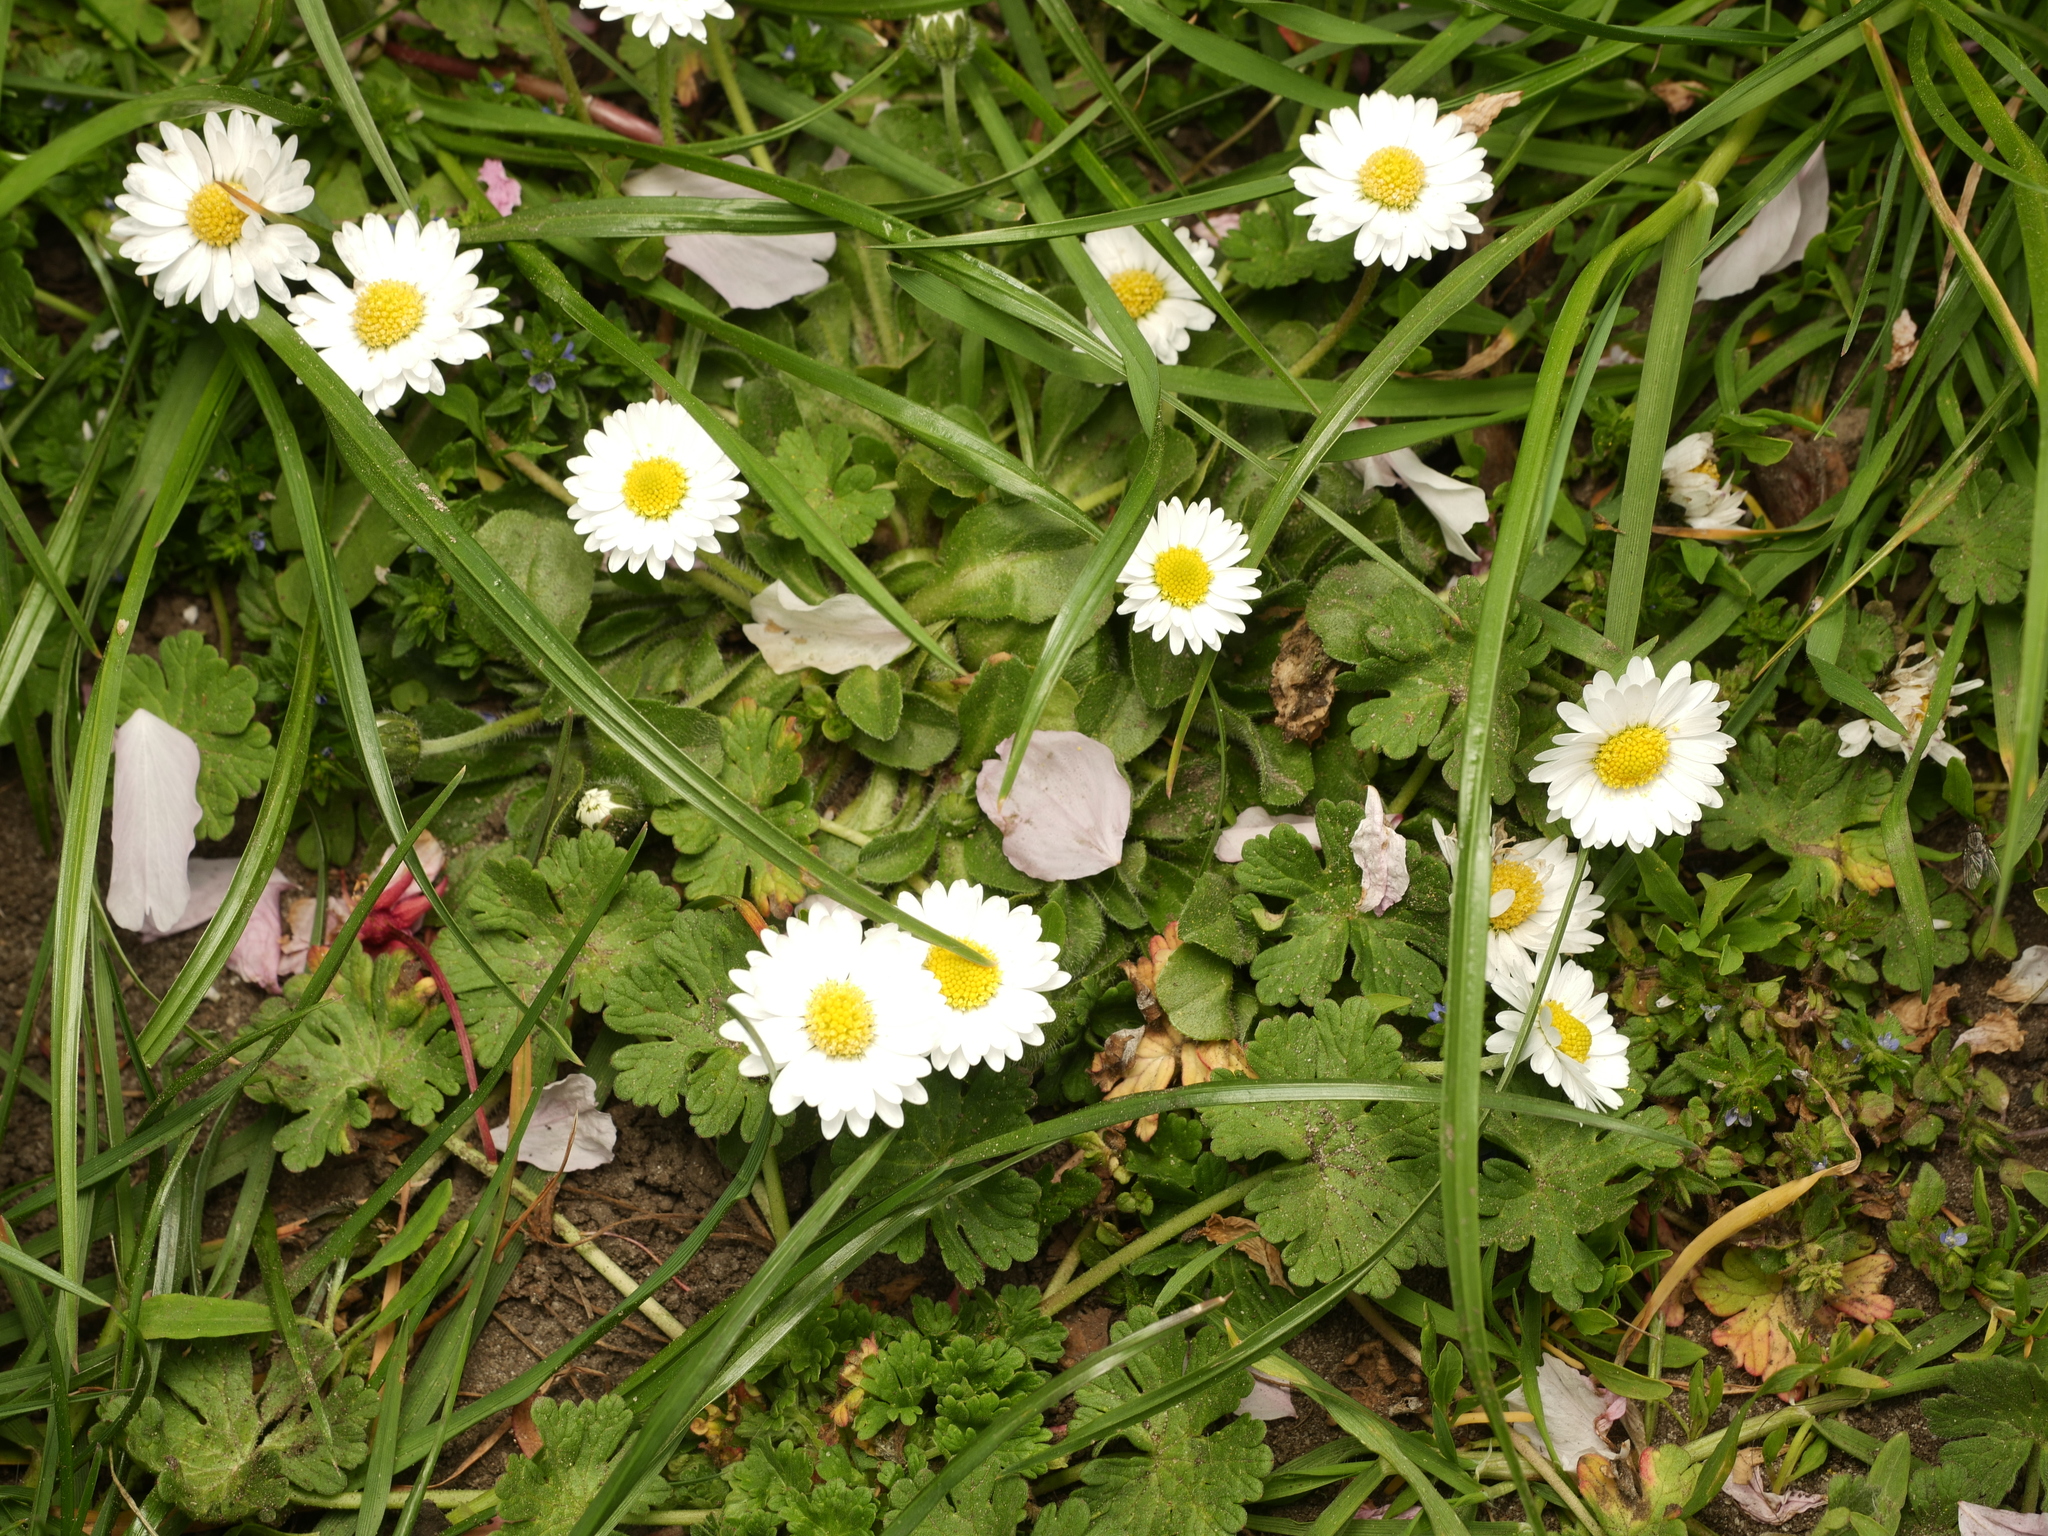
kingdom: Plantae
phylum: Tracheophyta
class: Magnoliopsida
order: Asterales
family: Asteraceae
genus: Bellis
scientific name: Bellis perennis
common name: Lawndaisy
